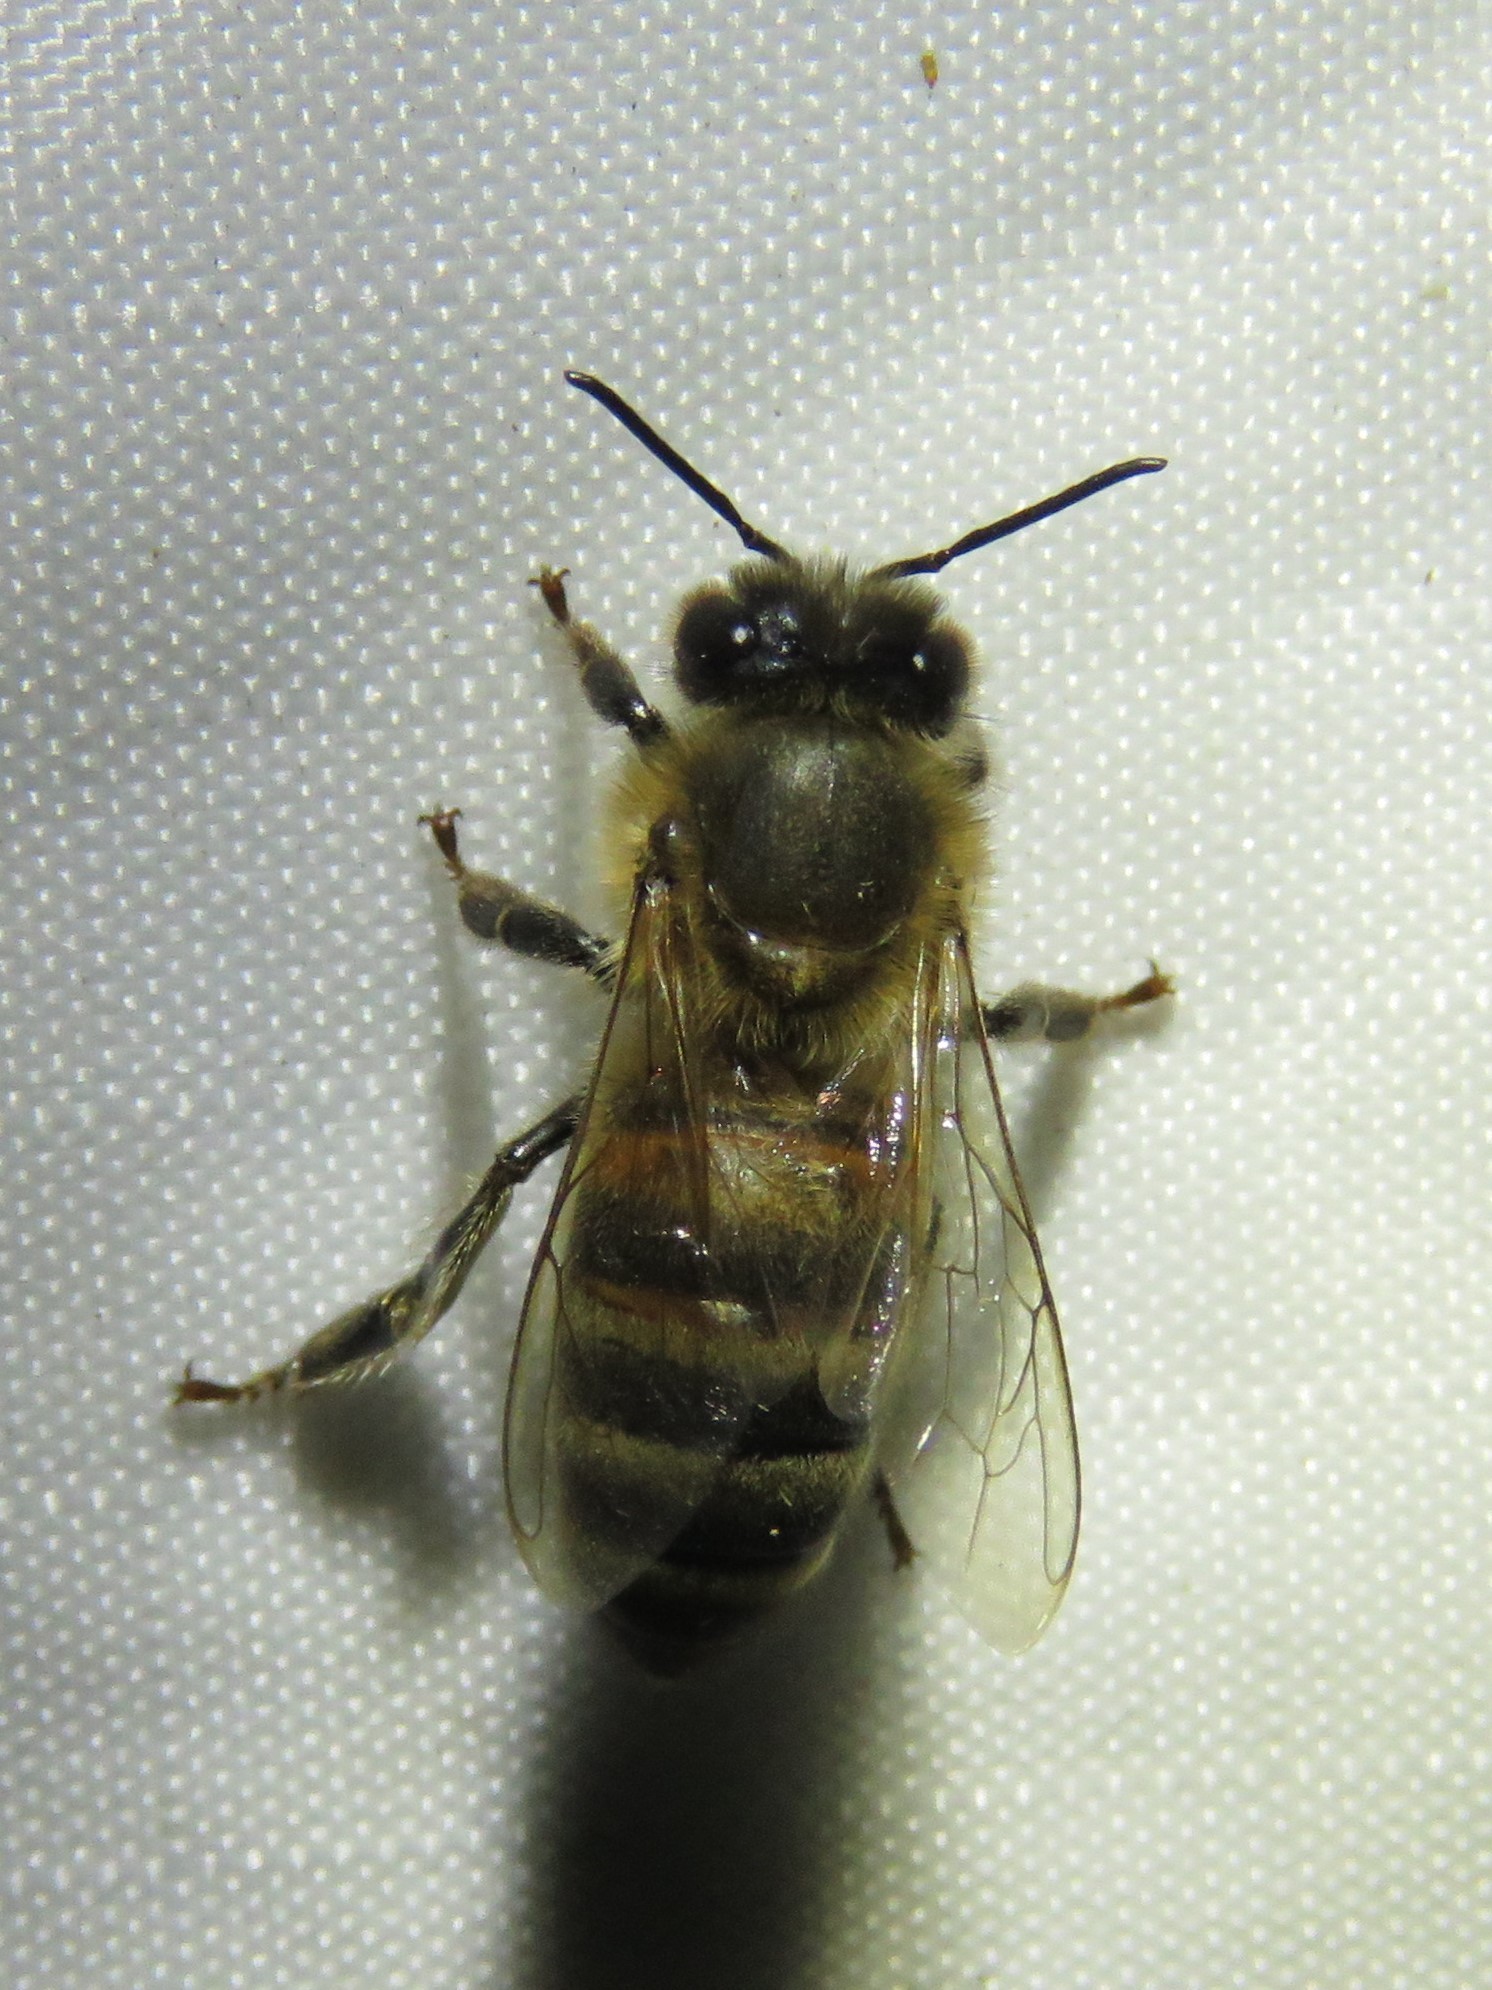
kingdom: Animalia
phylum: Arthropoda
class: Insecta
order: Hymenoptera
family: Apidae
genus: Apis
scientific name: Apis mellifera
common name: Honey bee
